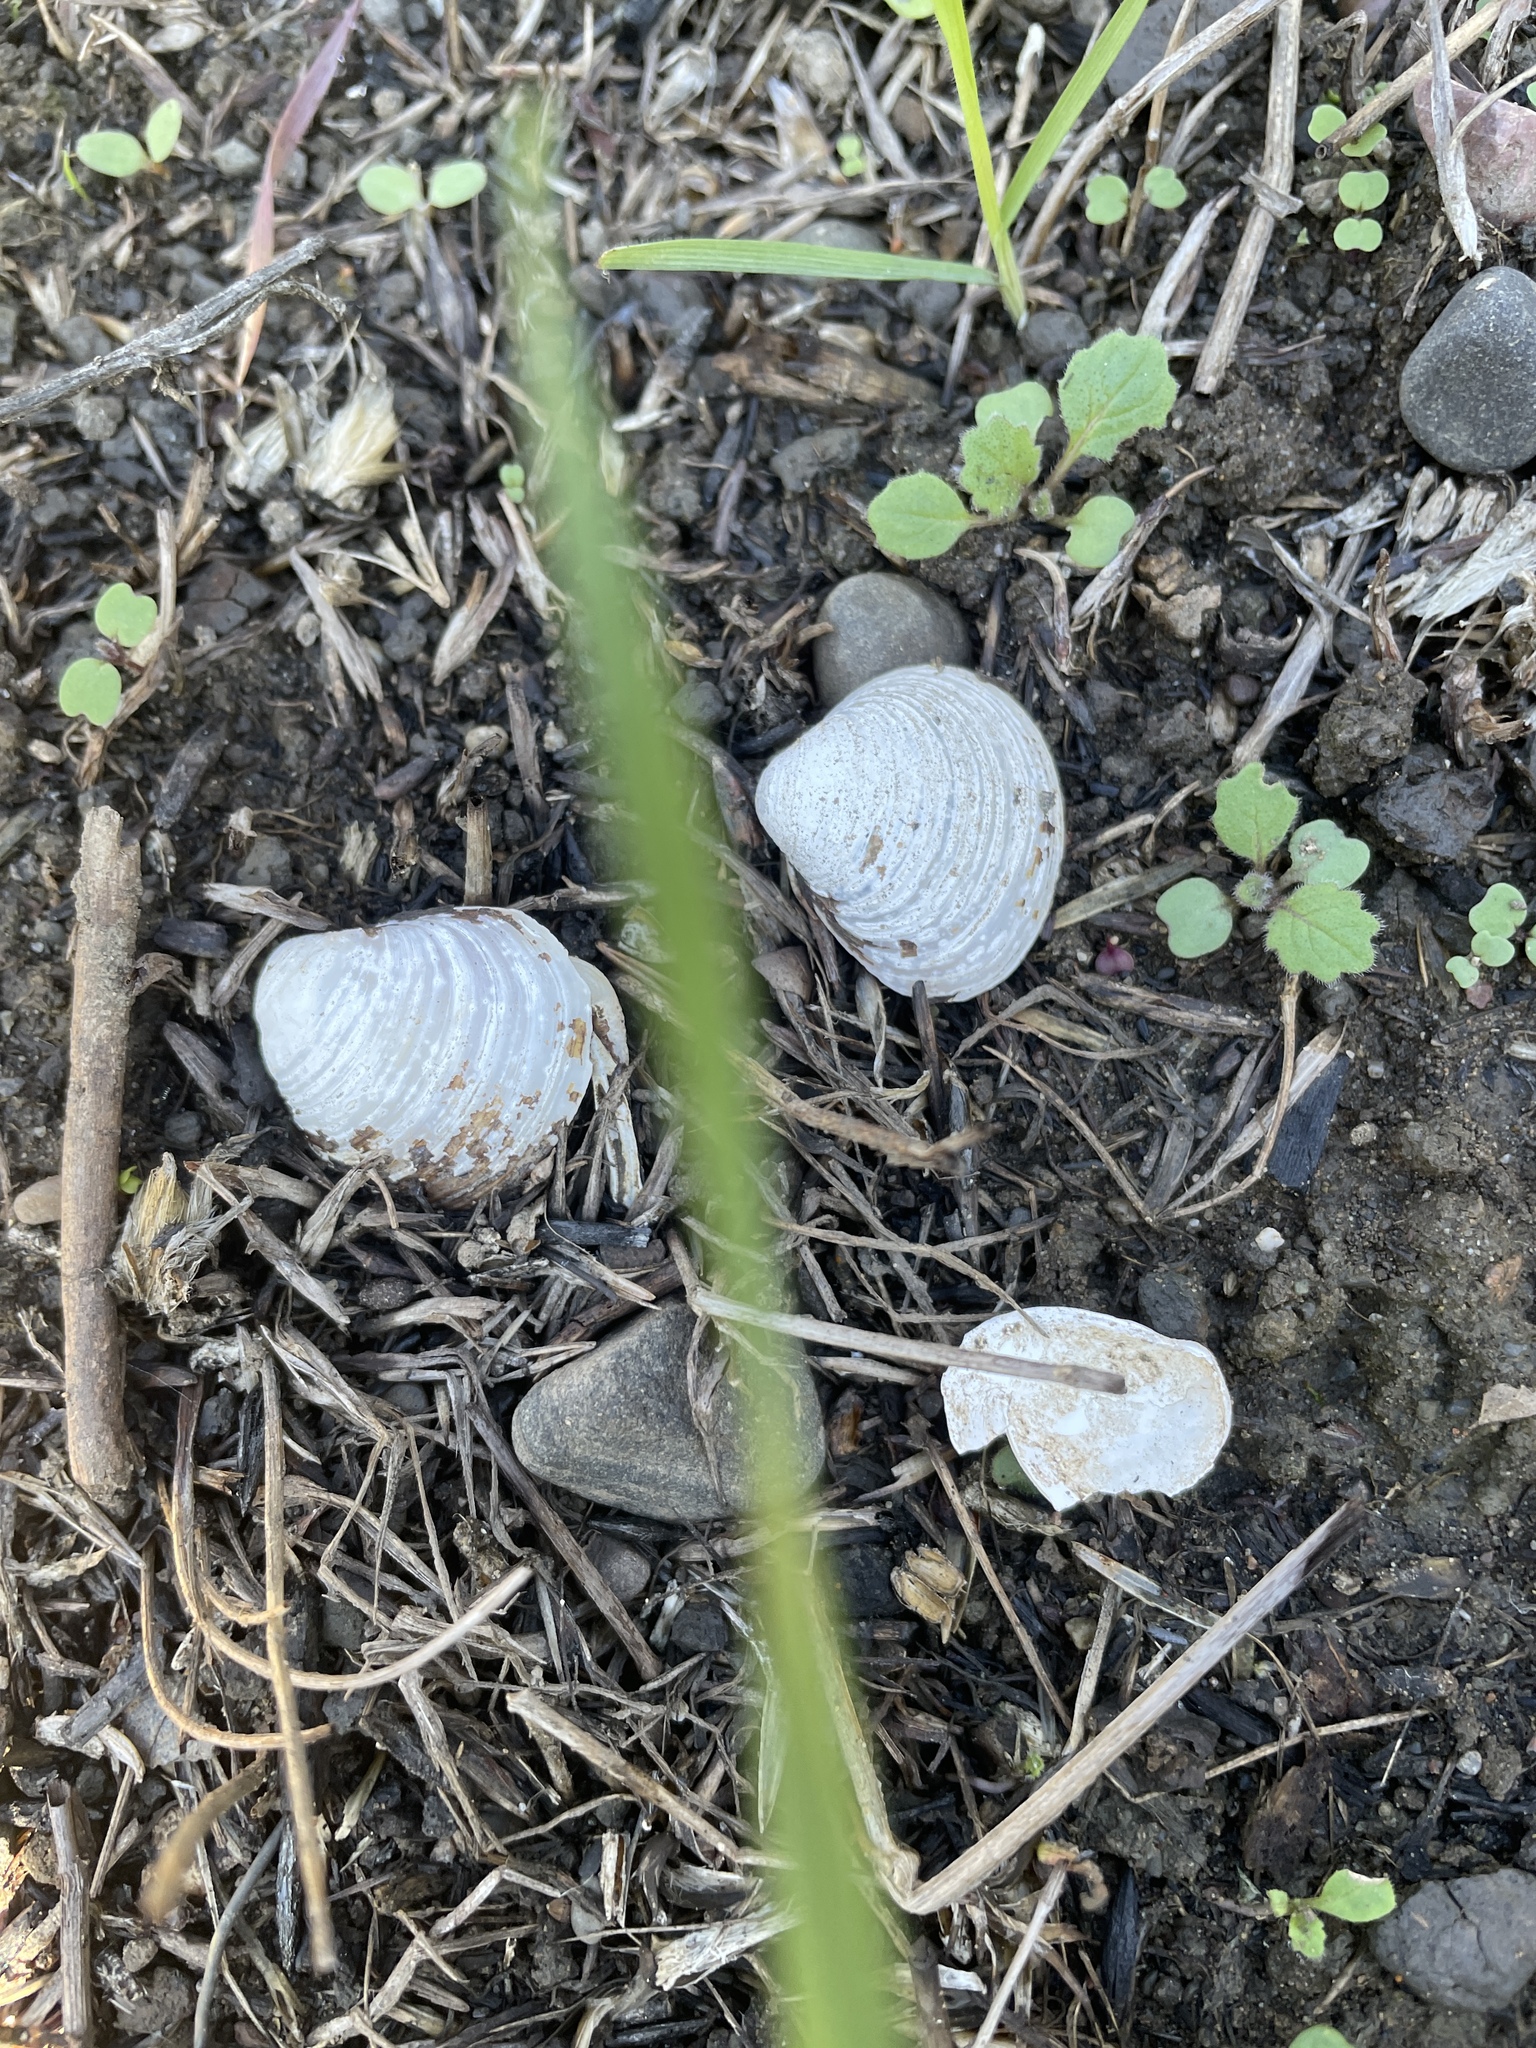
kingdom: Animalia
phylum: Mollusca
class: Bivalvia
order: Venerida
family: Cyrenidae
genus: Corbicula
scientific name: Corbicula fluminea
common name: Asian clam
